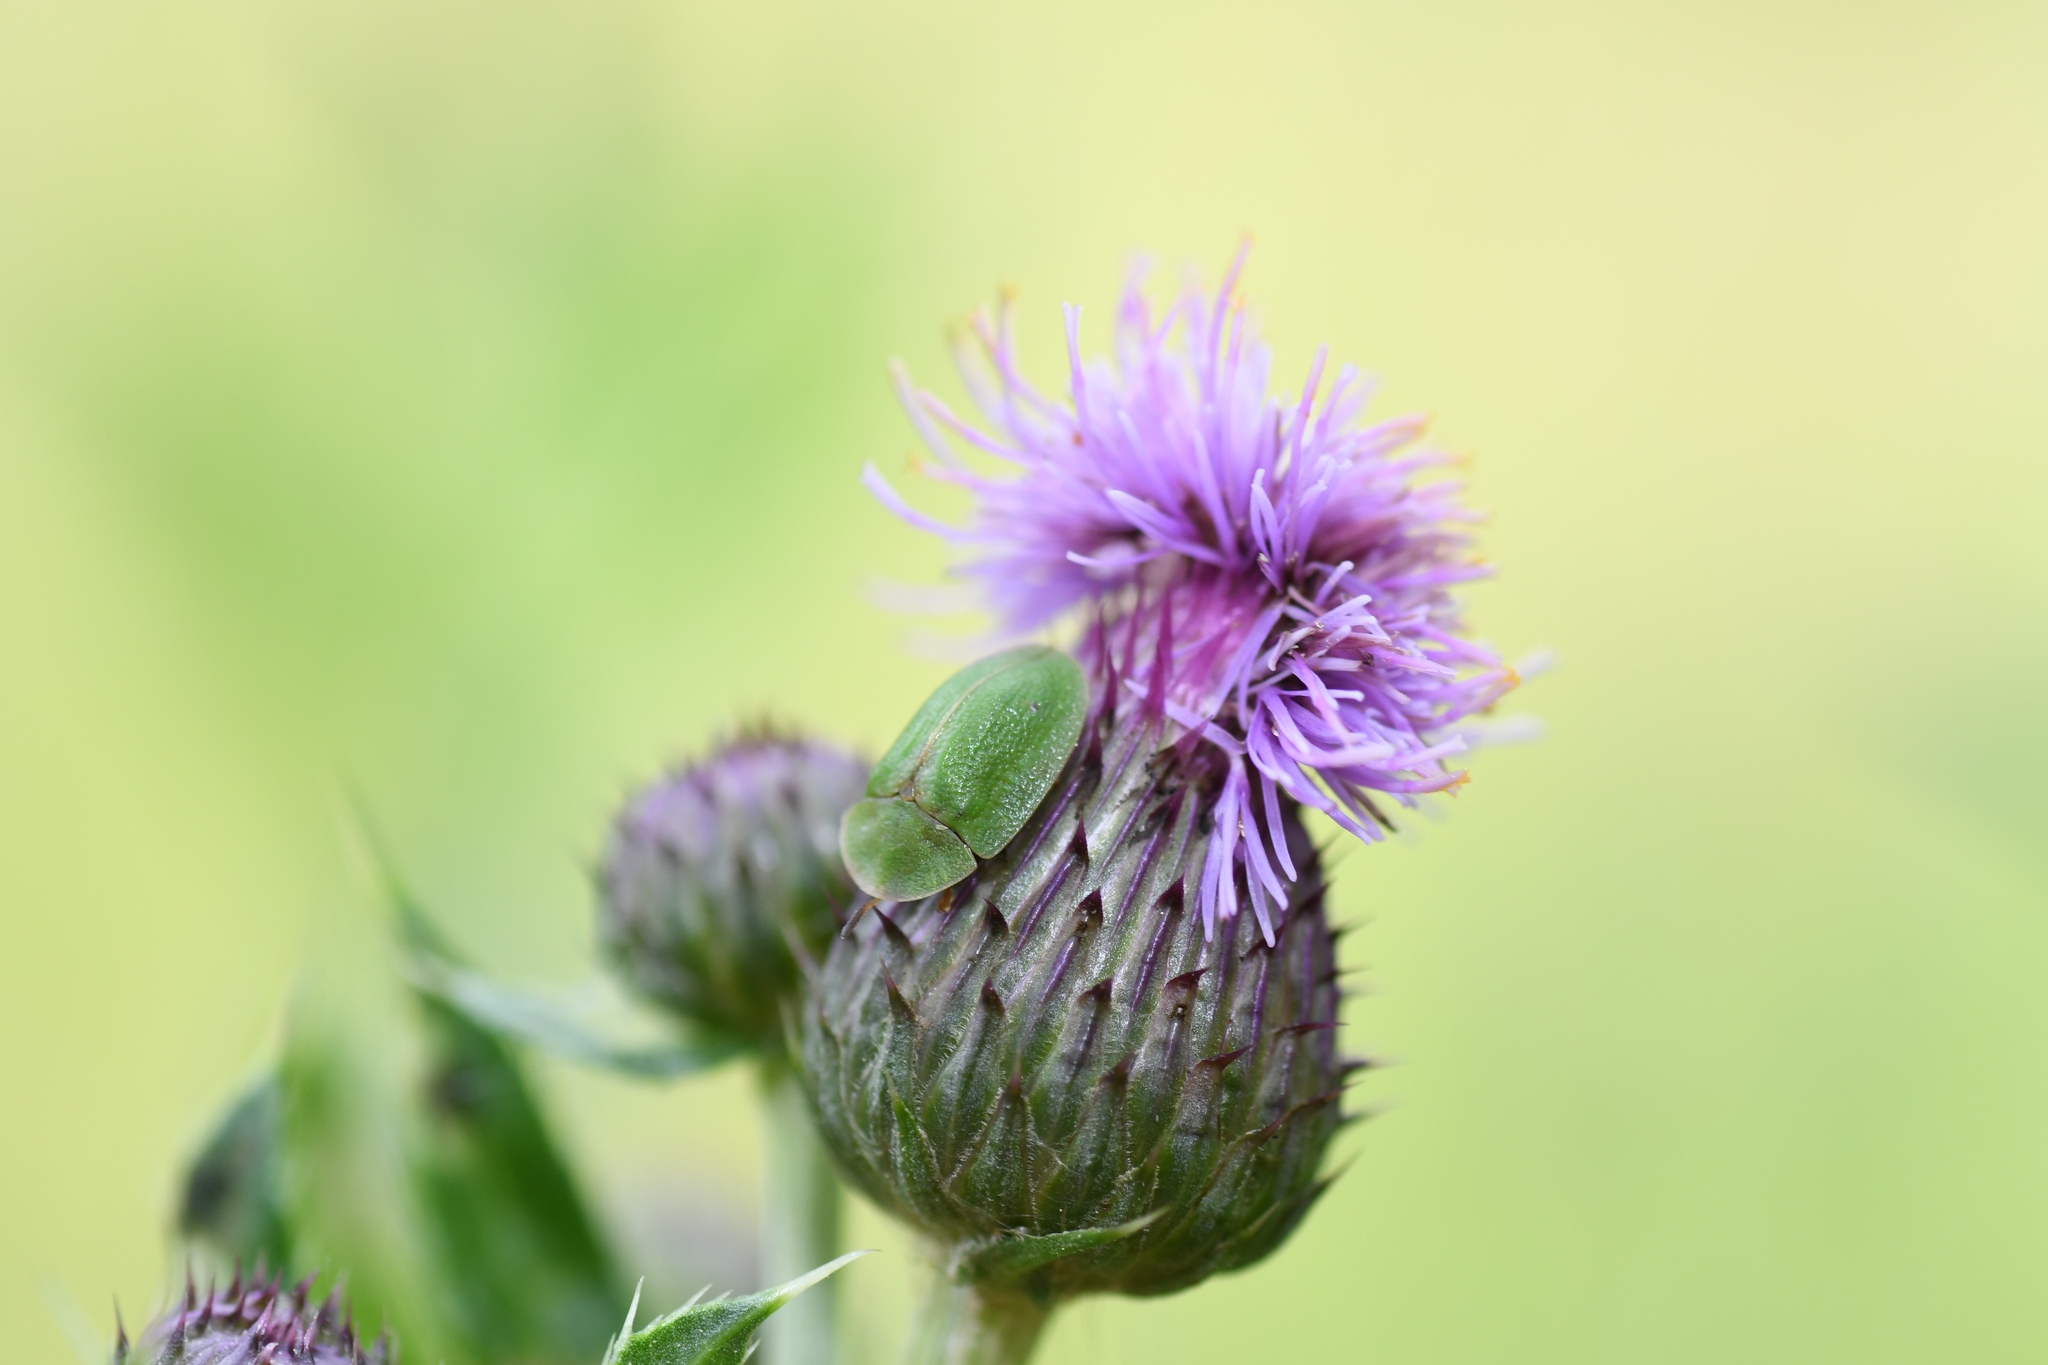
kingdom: Animalia
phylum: Arthropoda
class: Insecta
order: Coleoptera
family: Chrysomelidae
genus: Cassida
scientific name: Cassida rubiginosa
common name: Thistle tortoise beetle
